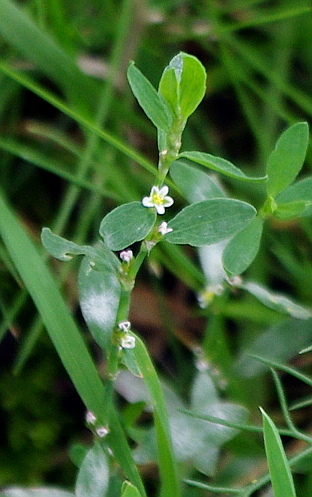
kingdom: Plantae
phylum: Tracheophyta
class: Magnoliopsida
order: Caryophyllales
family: Polygonaceae
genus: Polygonum
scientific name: Polygonum
